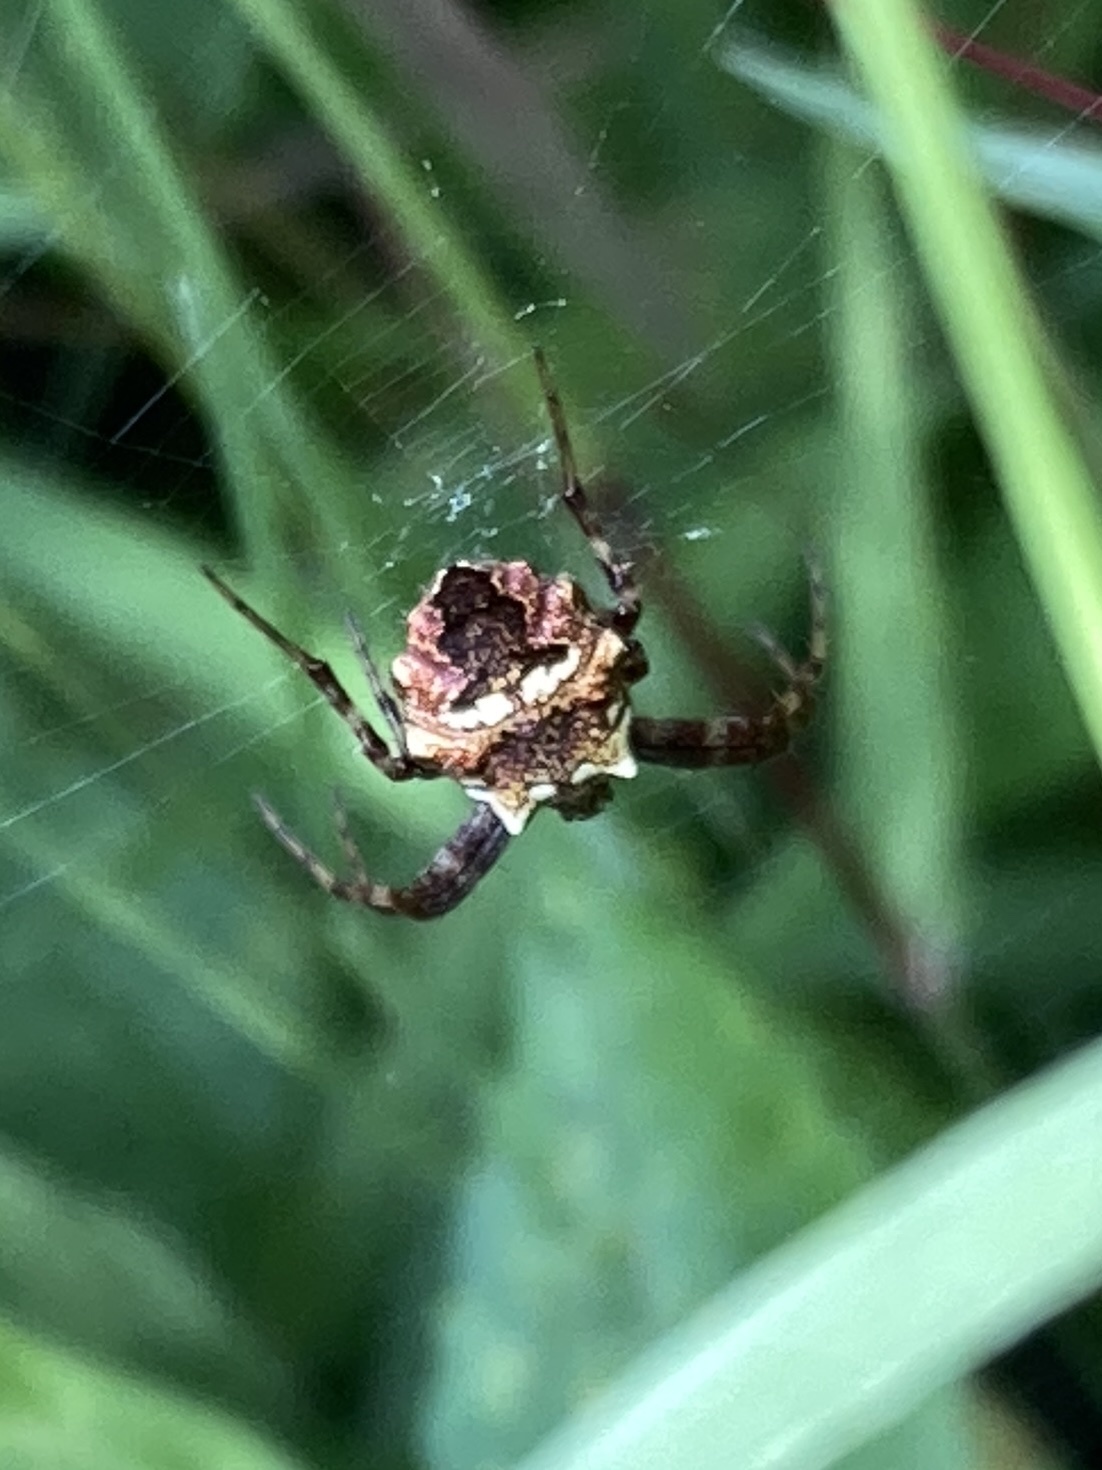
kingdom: Animalia
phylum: Arthropoda
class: Arachnida
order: Araneae
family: Araneidae
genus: Gea
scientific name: Gea heptagon
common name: Orb weavers
